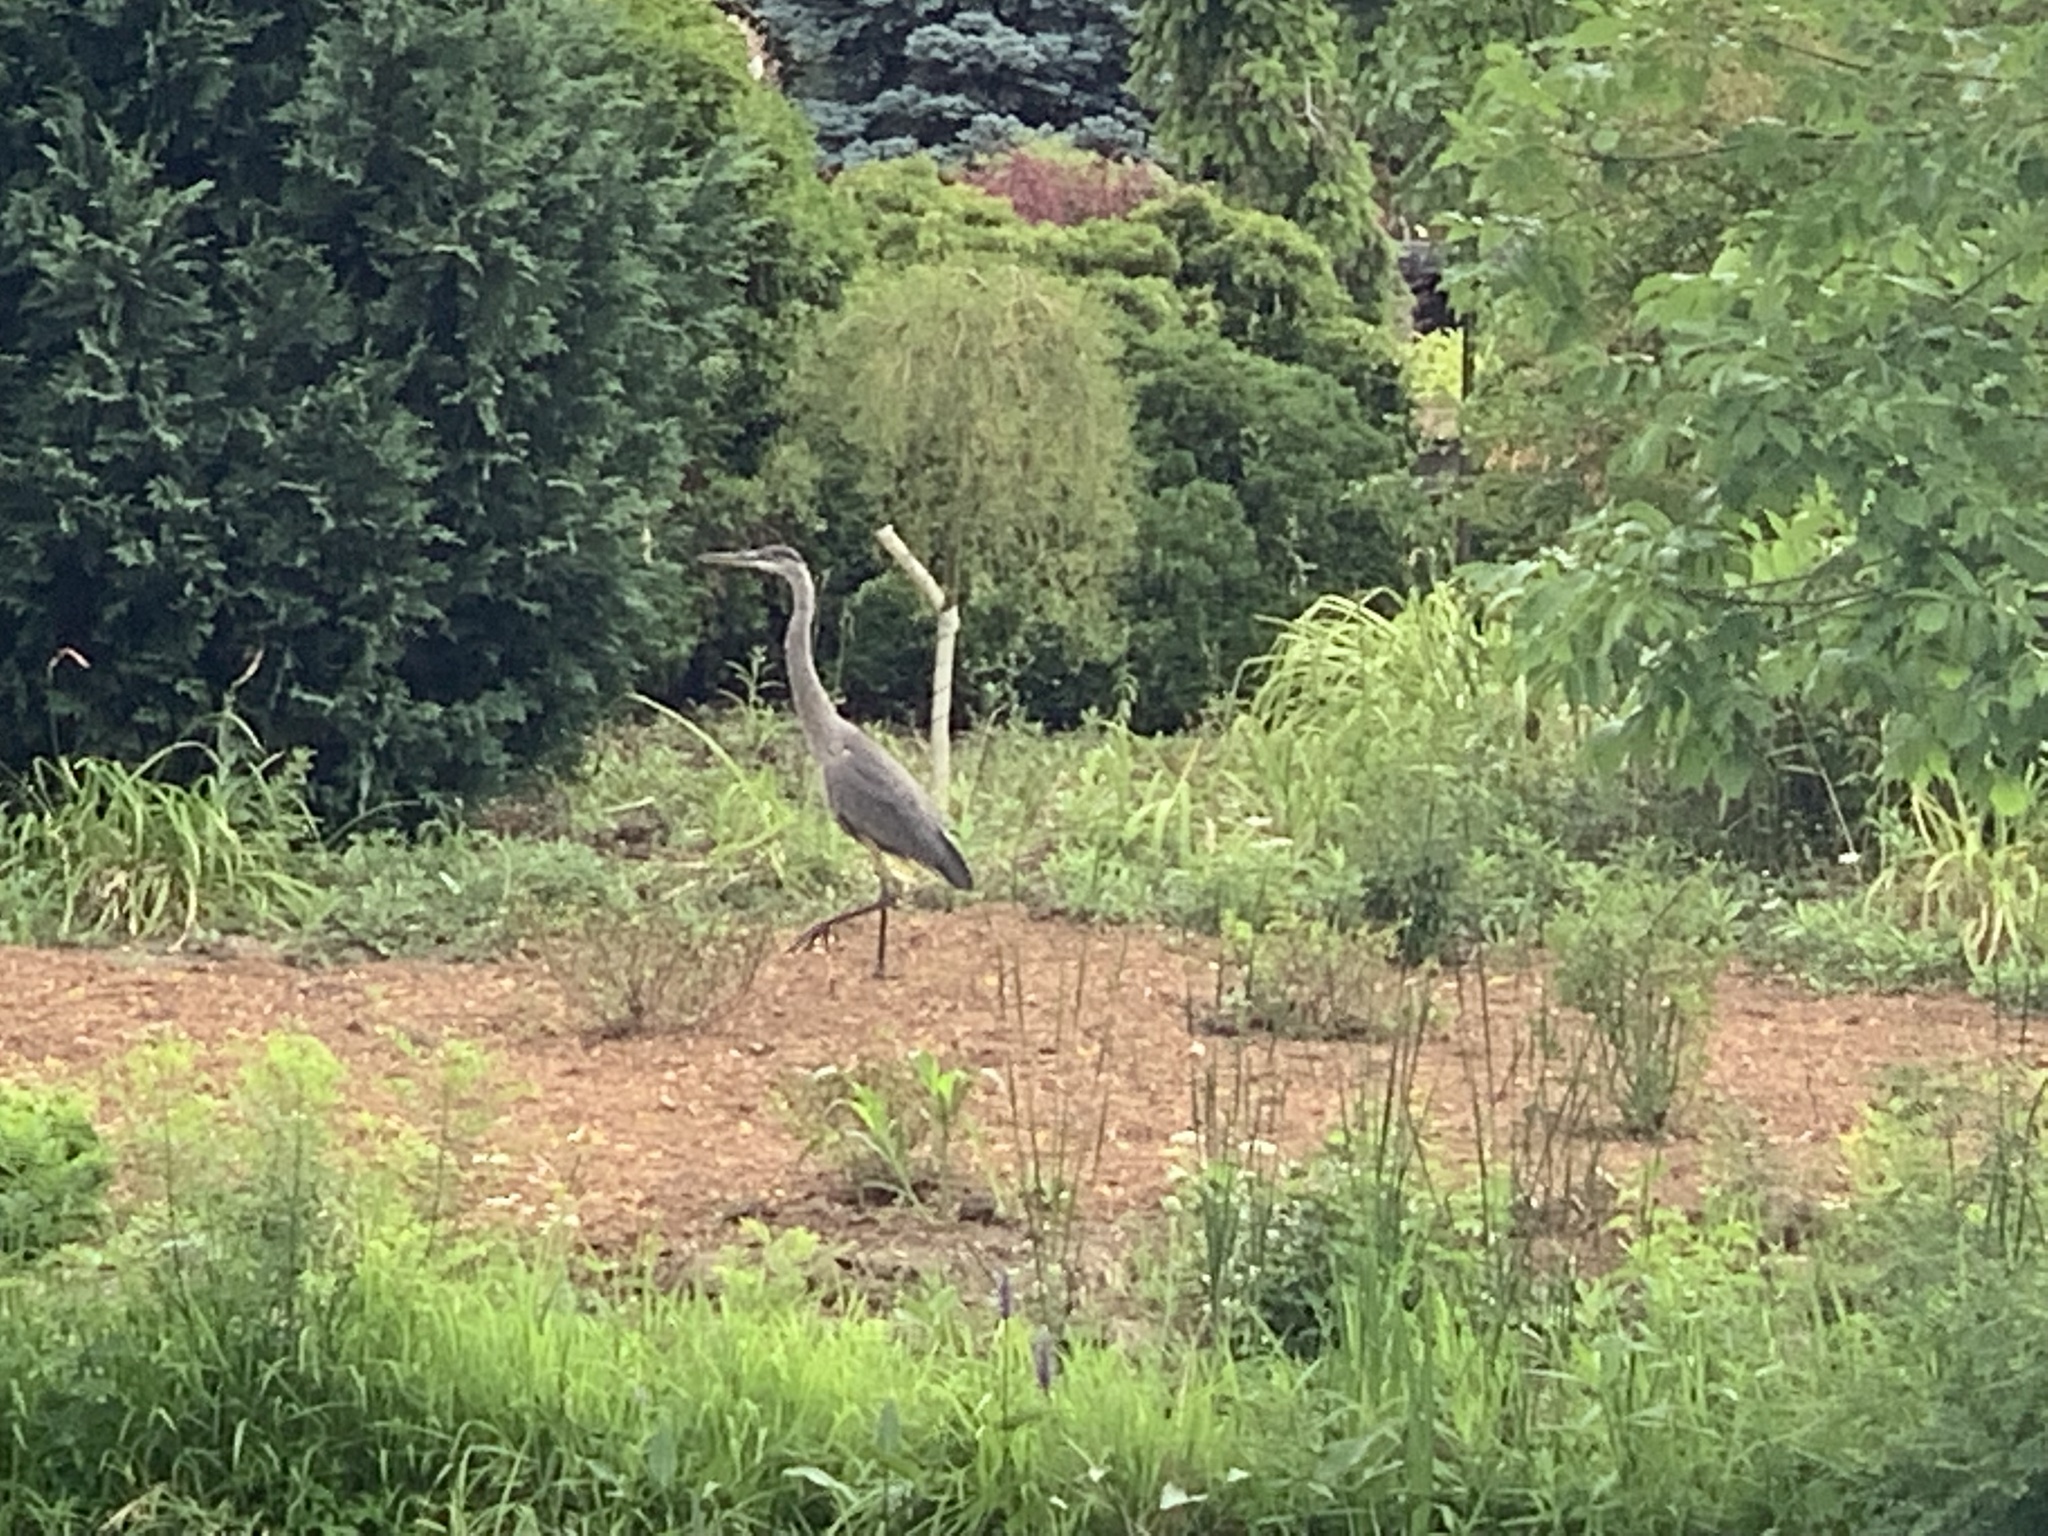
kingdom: Animalia
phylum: Chordata
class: Aves
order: Pelecaniformes
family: Ardeidae
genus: Ardea
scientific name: Ardea herodias
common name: Great blue heron
